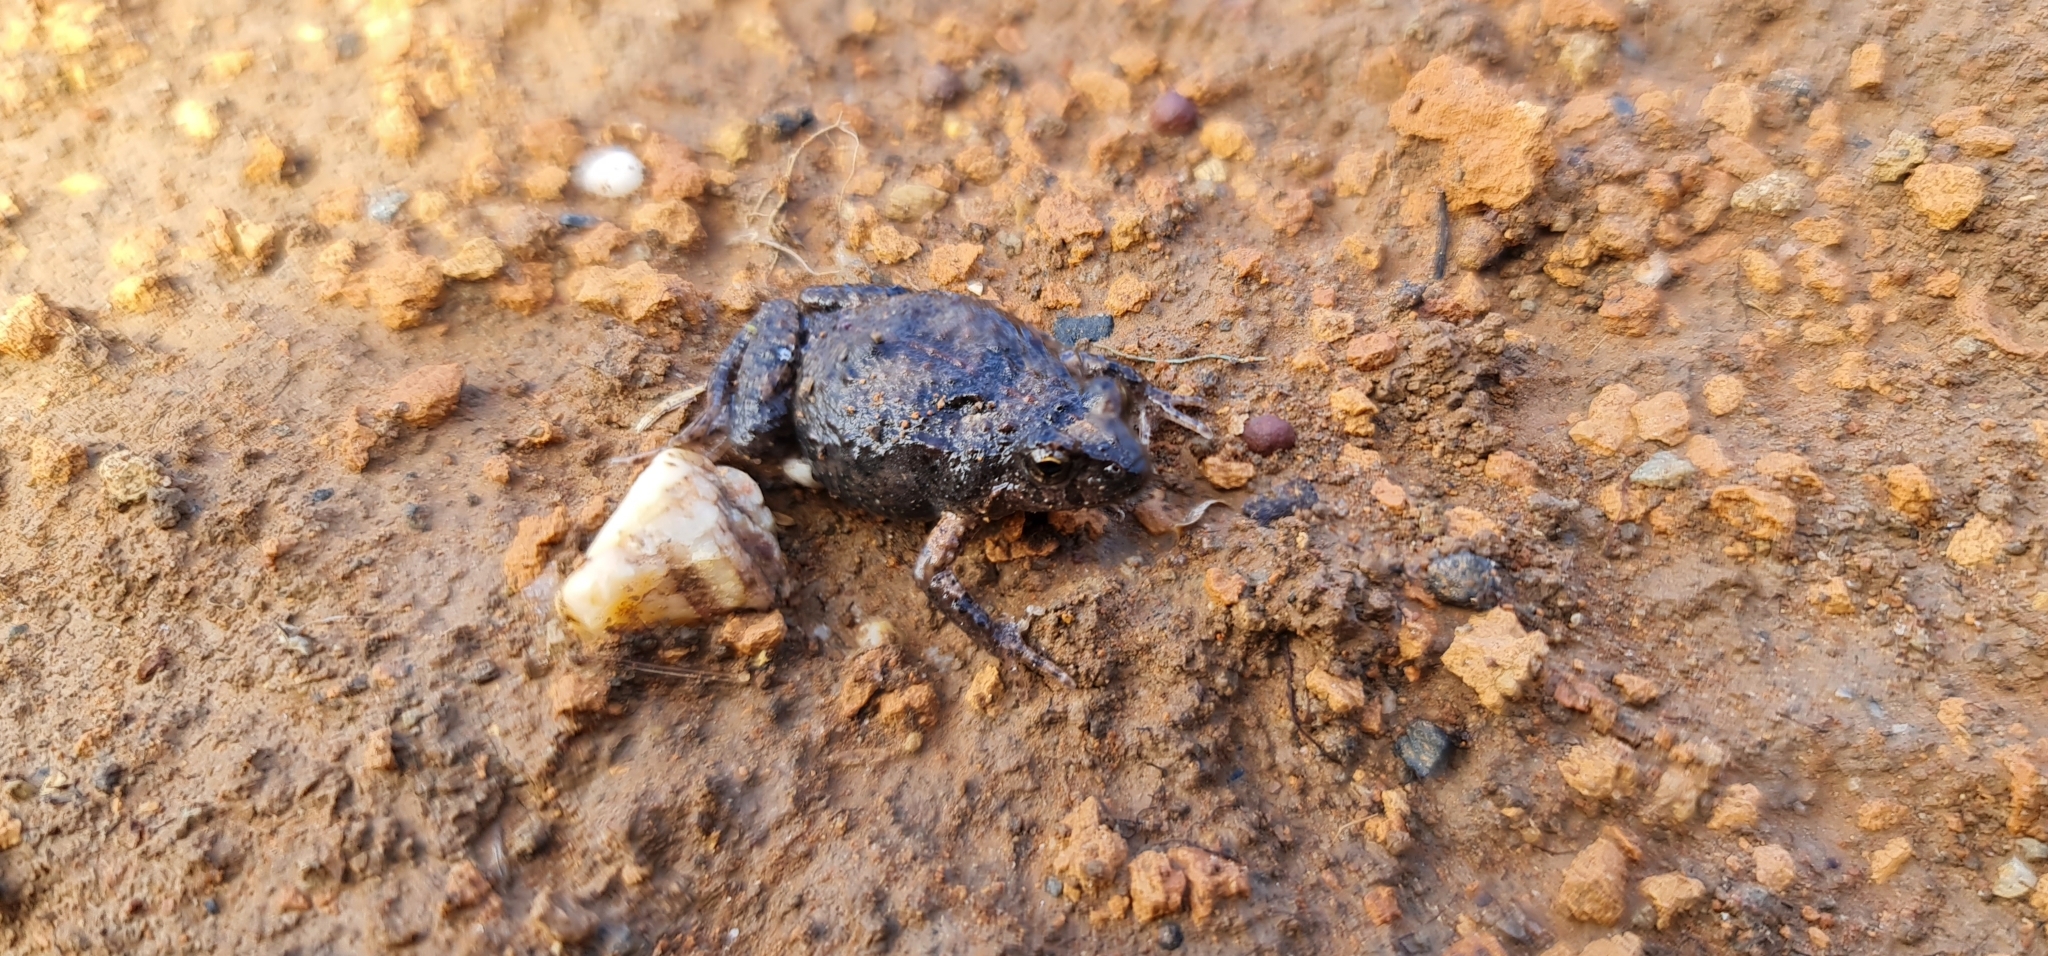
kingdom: Animalia
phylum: Chordata
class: Amphibia
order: Anura
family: Myobatrachidae
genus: Crinia
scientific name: Crinia signifera
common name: Brown froglet
